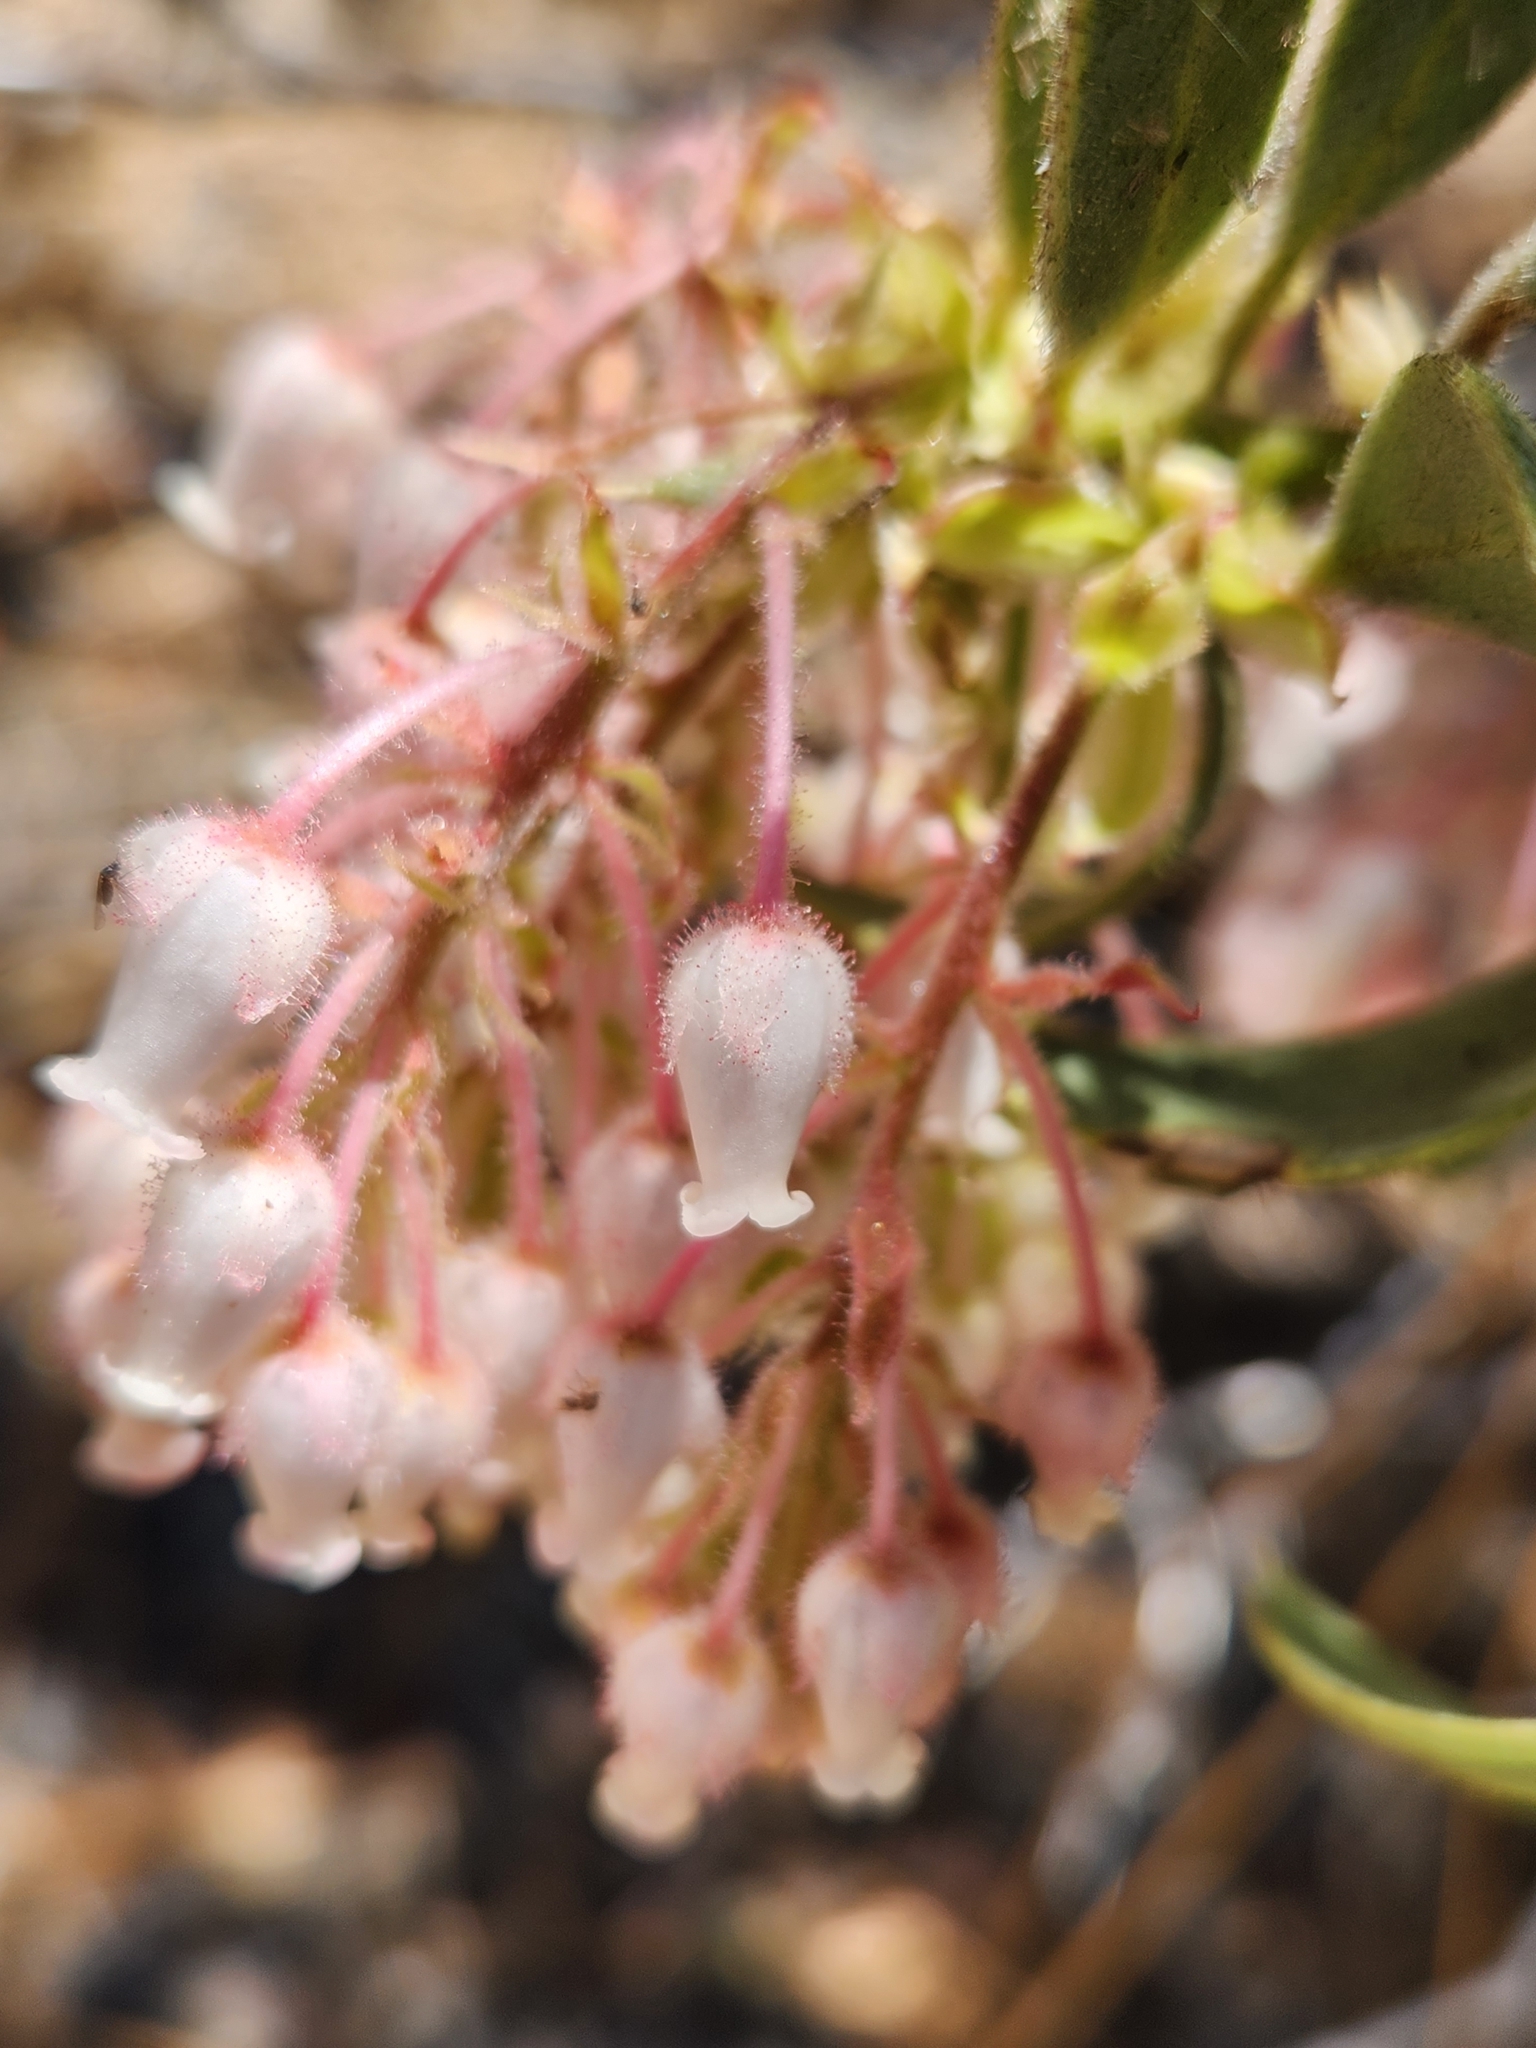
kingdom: Plantae
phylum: Tracheophyta
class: Magnoliopsida
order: Ericales
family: Ericaceae
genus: Arctostaphylos
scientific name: Arctostaphylos pringlei
